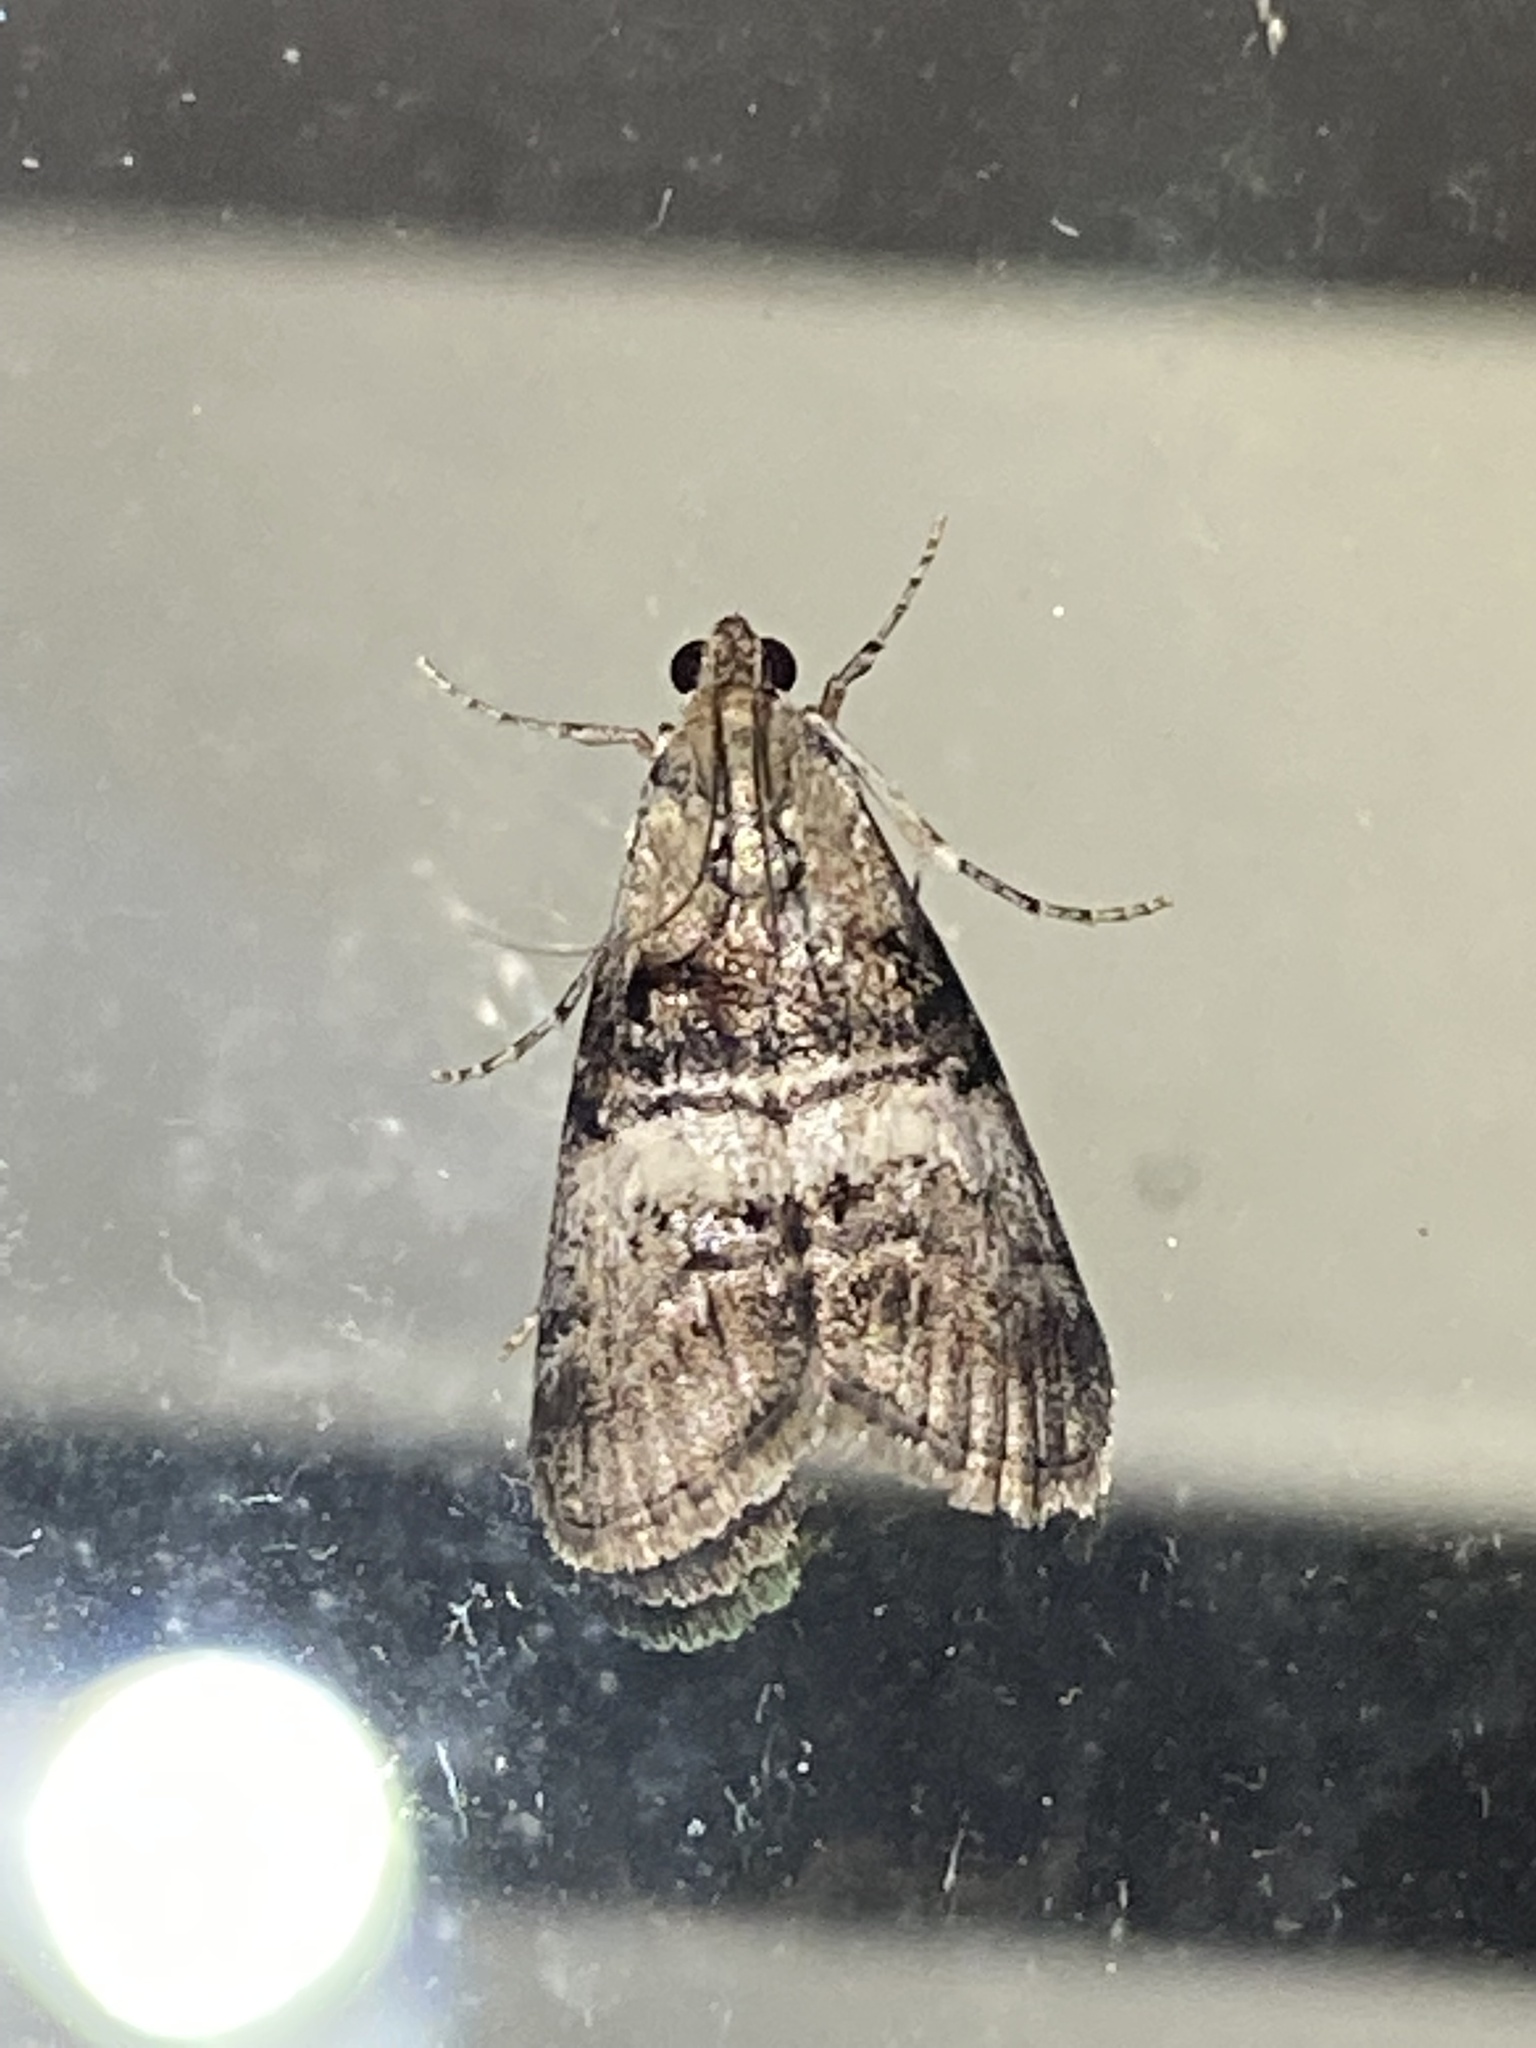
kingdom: Animalia
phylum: Arthropoda
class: Insecta
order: Lepidoptera
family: Pyralidae
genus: Pococera
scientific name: Pococera asperatella
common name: Maple webworm moth
